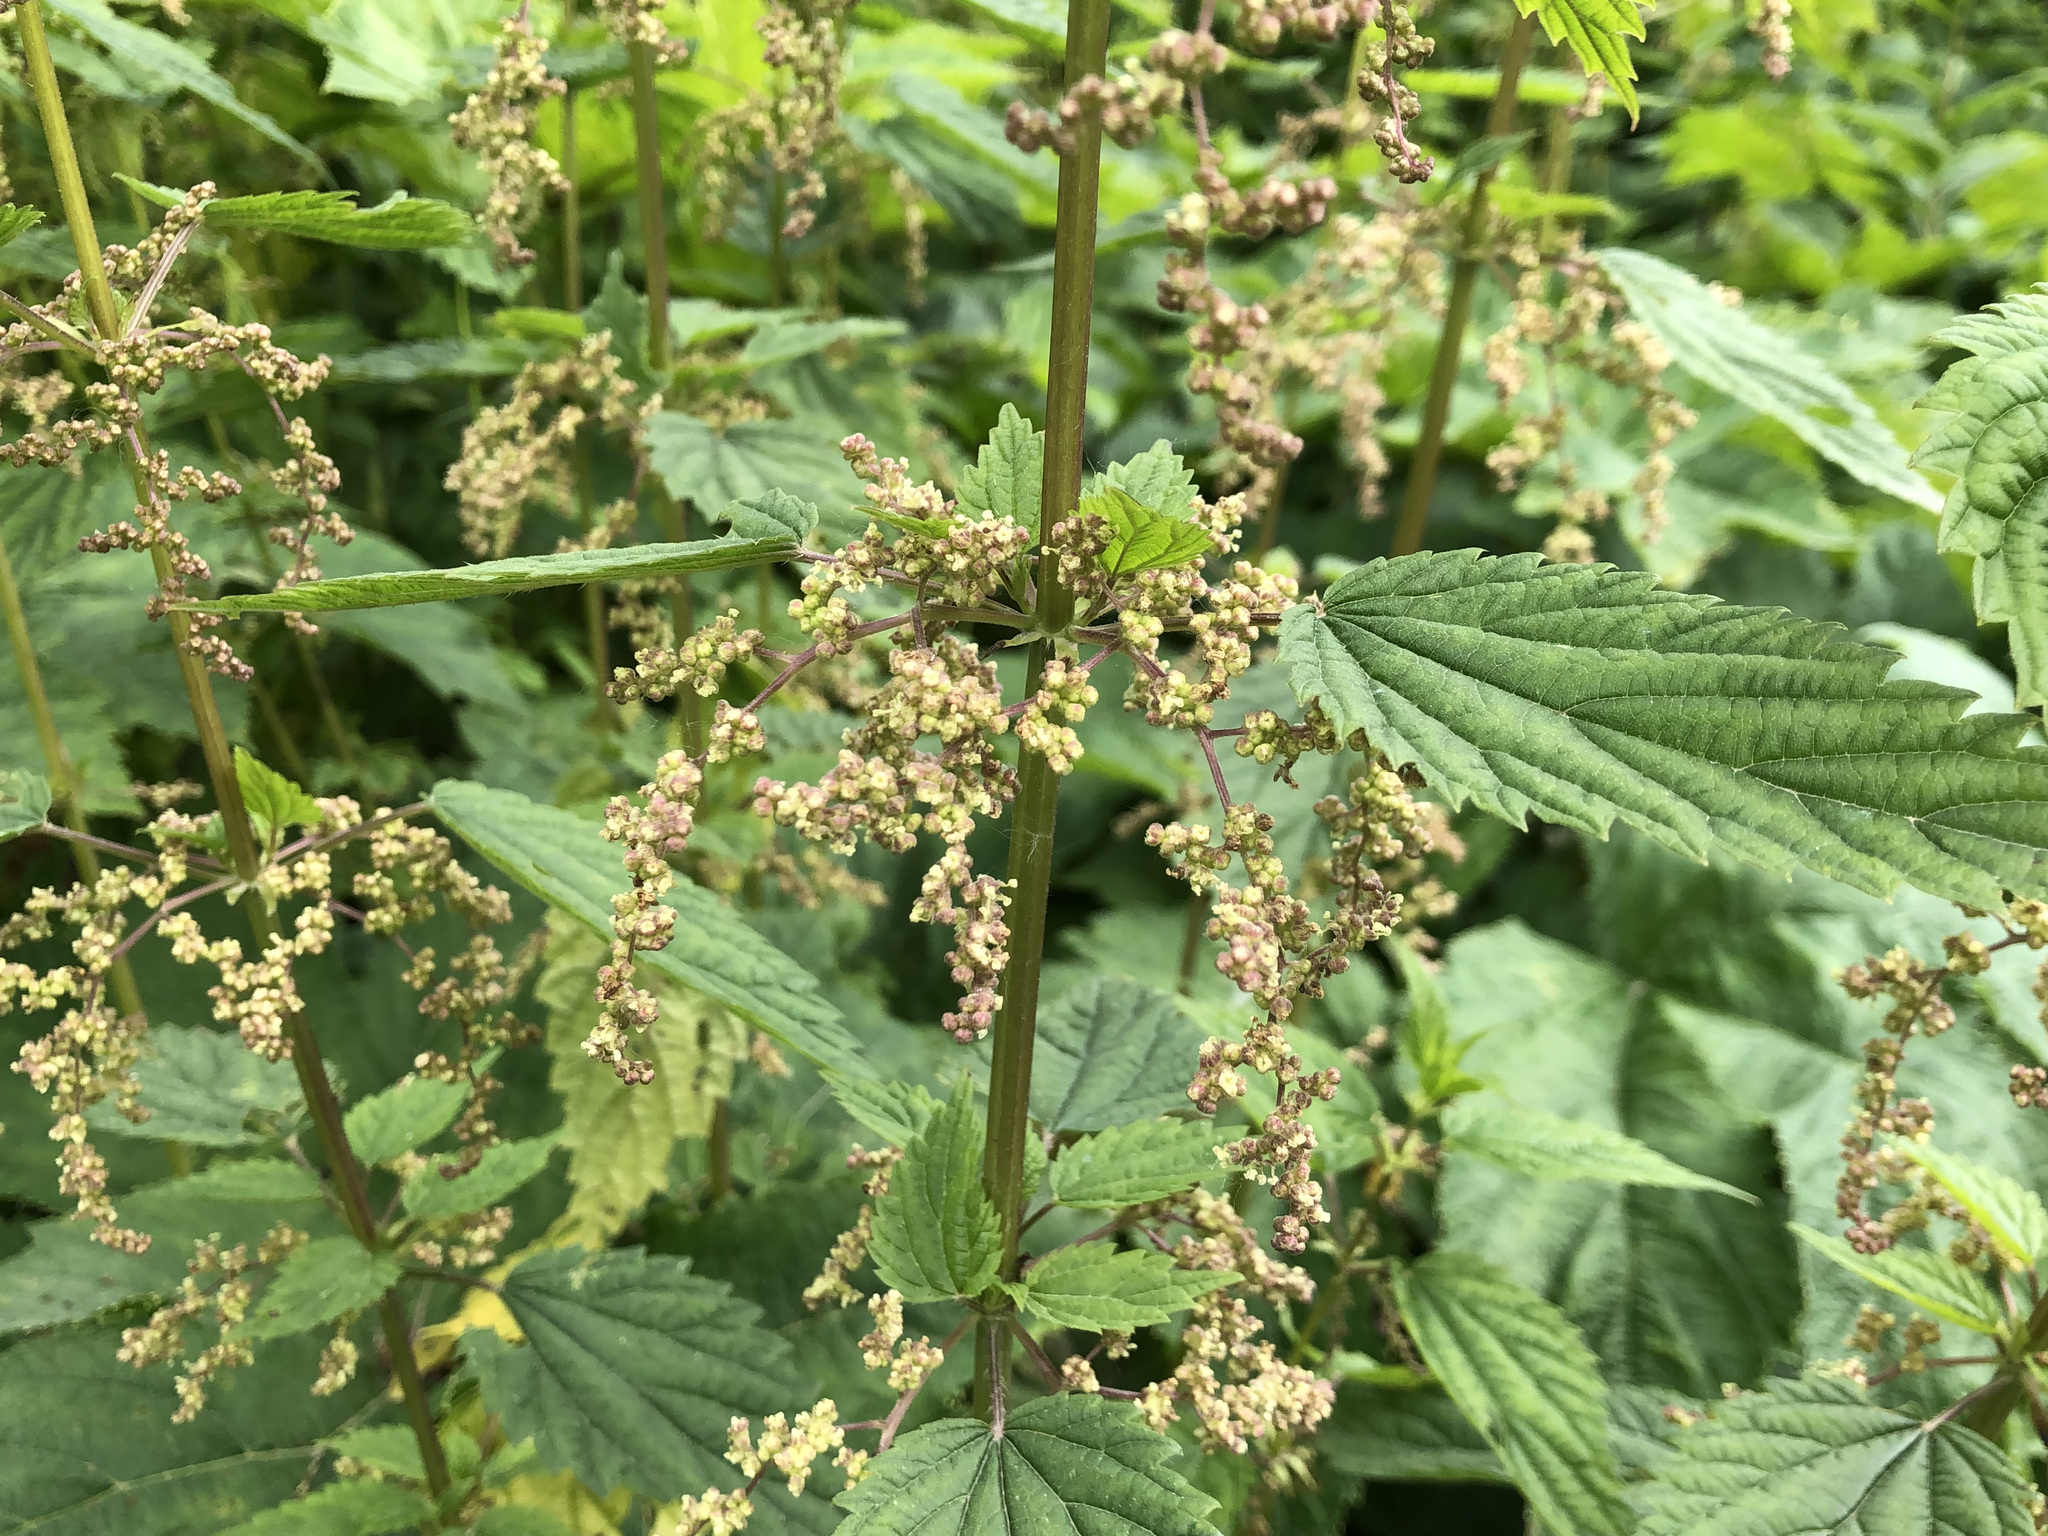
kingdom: Plantae
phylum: Tracheophyta
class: Magnoliopsida
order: Rosales
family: Urticaceae
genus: Urtica
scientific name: Urtica dioica
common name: Common nettle
